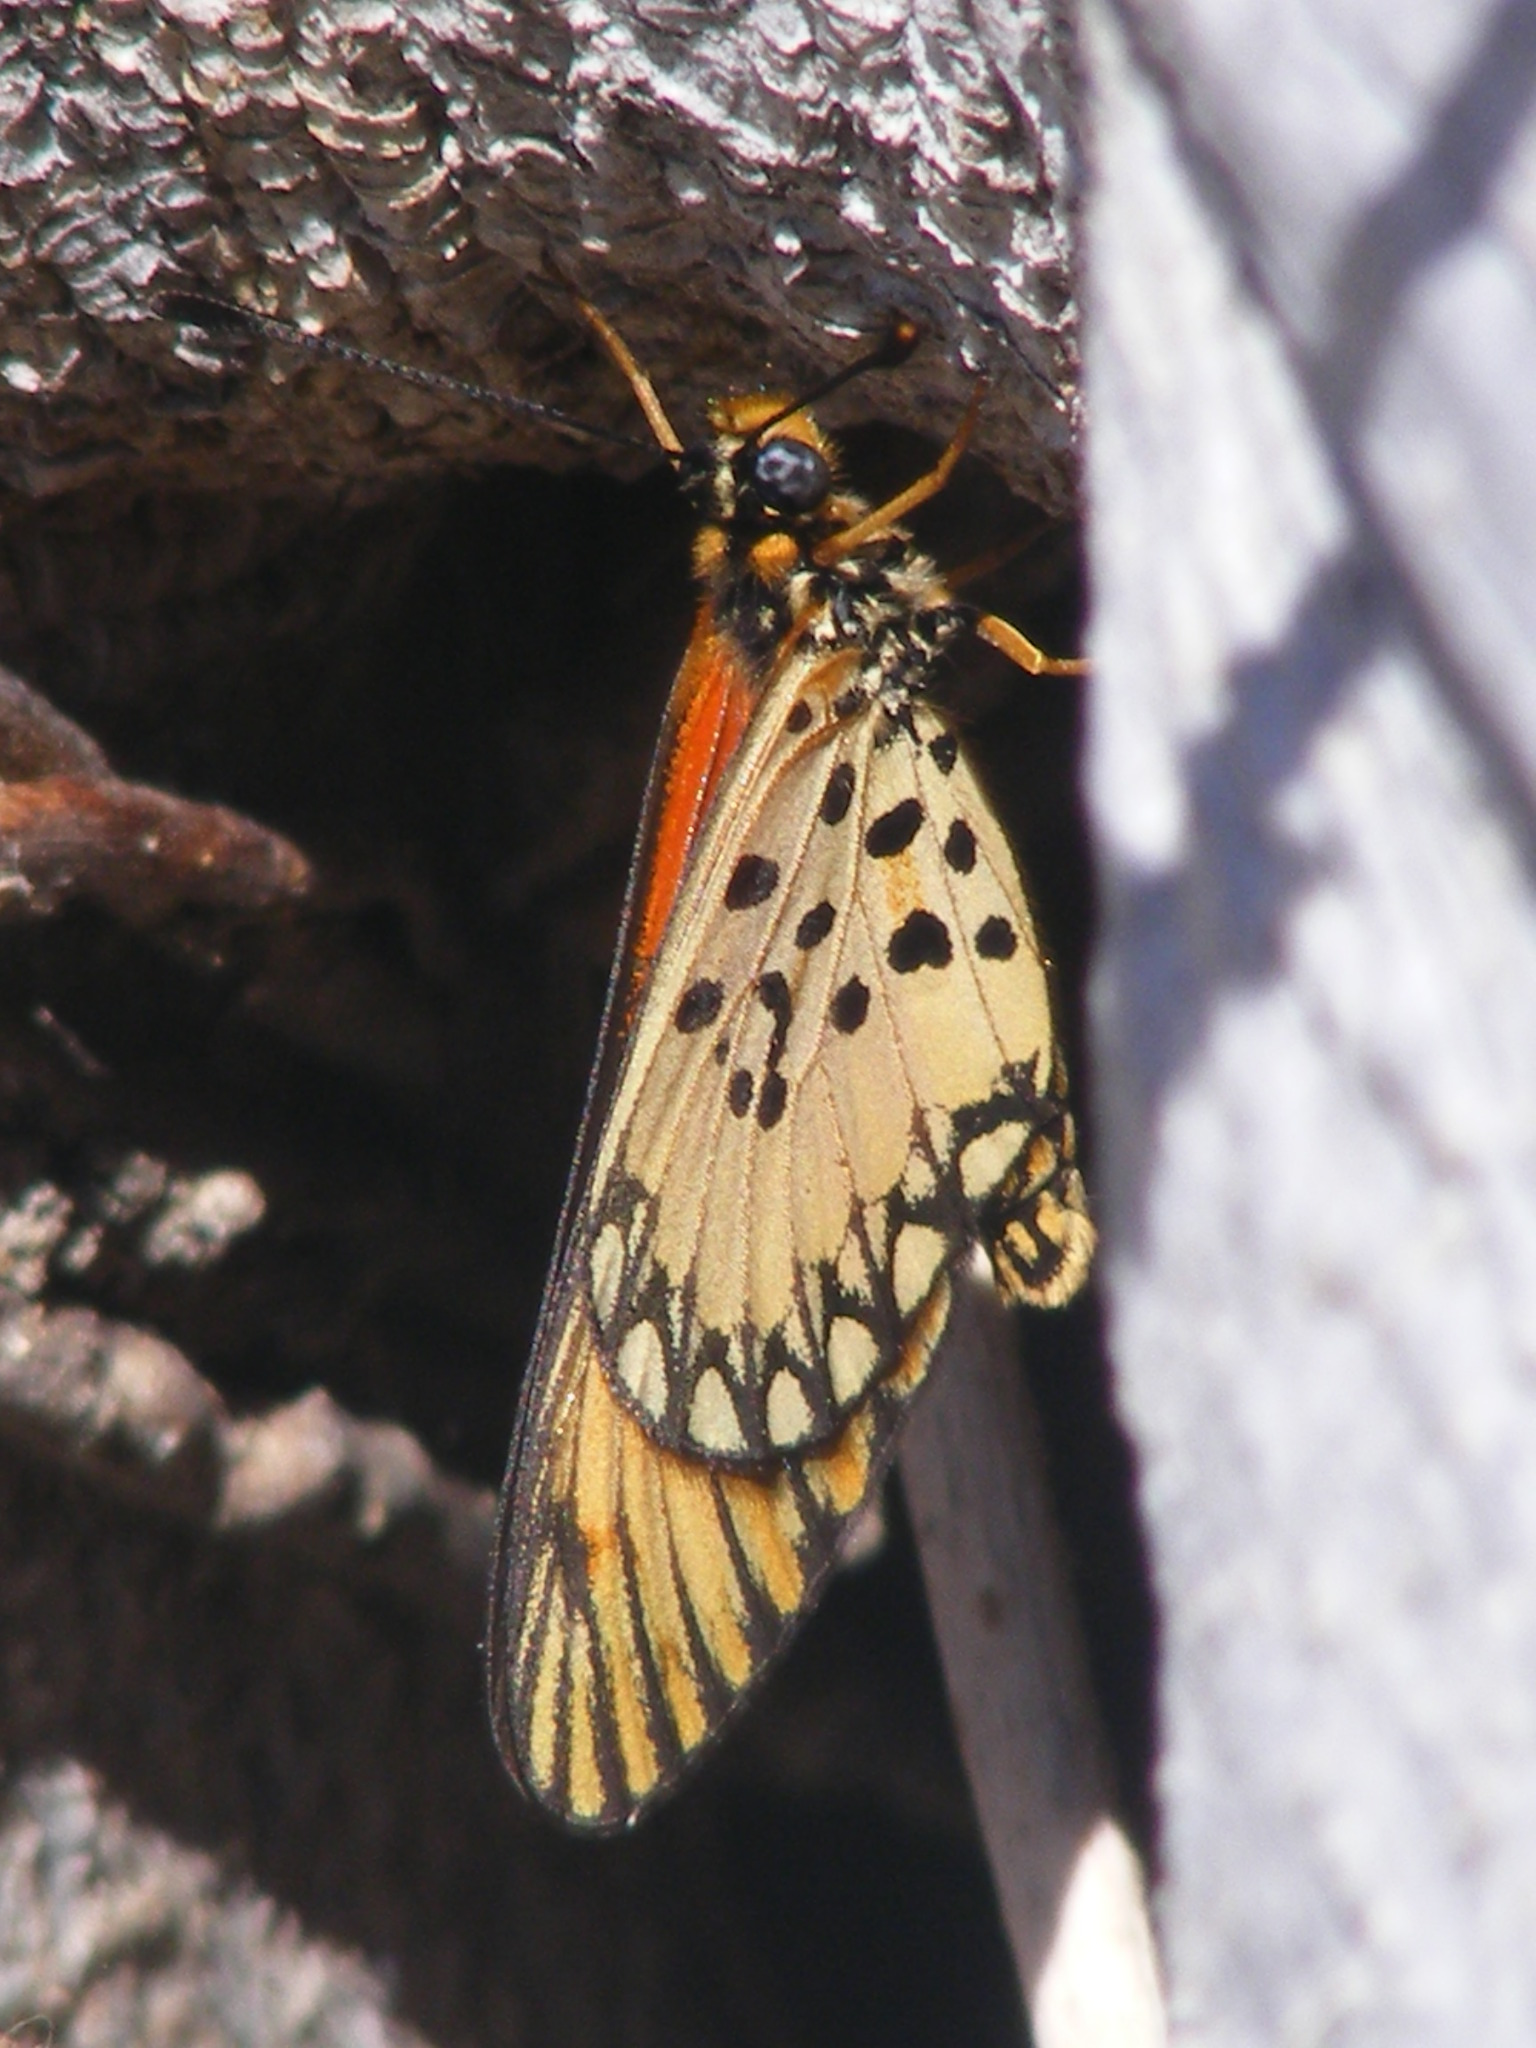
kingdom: Animalia
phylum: Arthropoda
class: Insecta
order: Lepidoptera
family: Nymphalidae
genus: Acraea
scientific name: Acraea Telchinia serena
